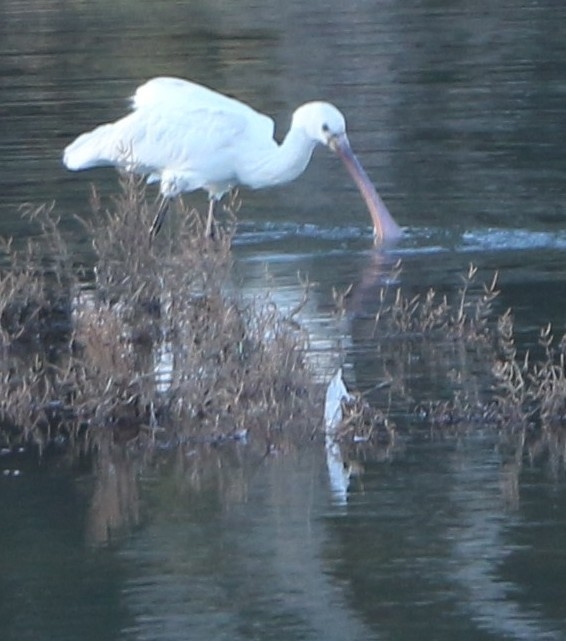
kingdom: Animalia
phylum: Chordata
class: Aves
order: Pelecaniformes
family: Threskiornithidae
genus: Platalea
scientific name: Platalea leucorodia
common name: Eurasian spoonbill
